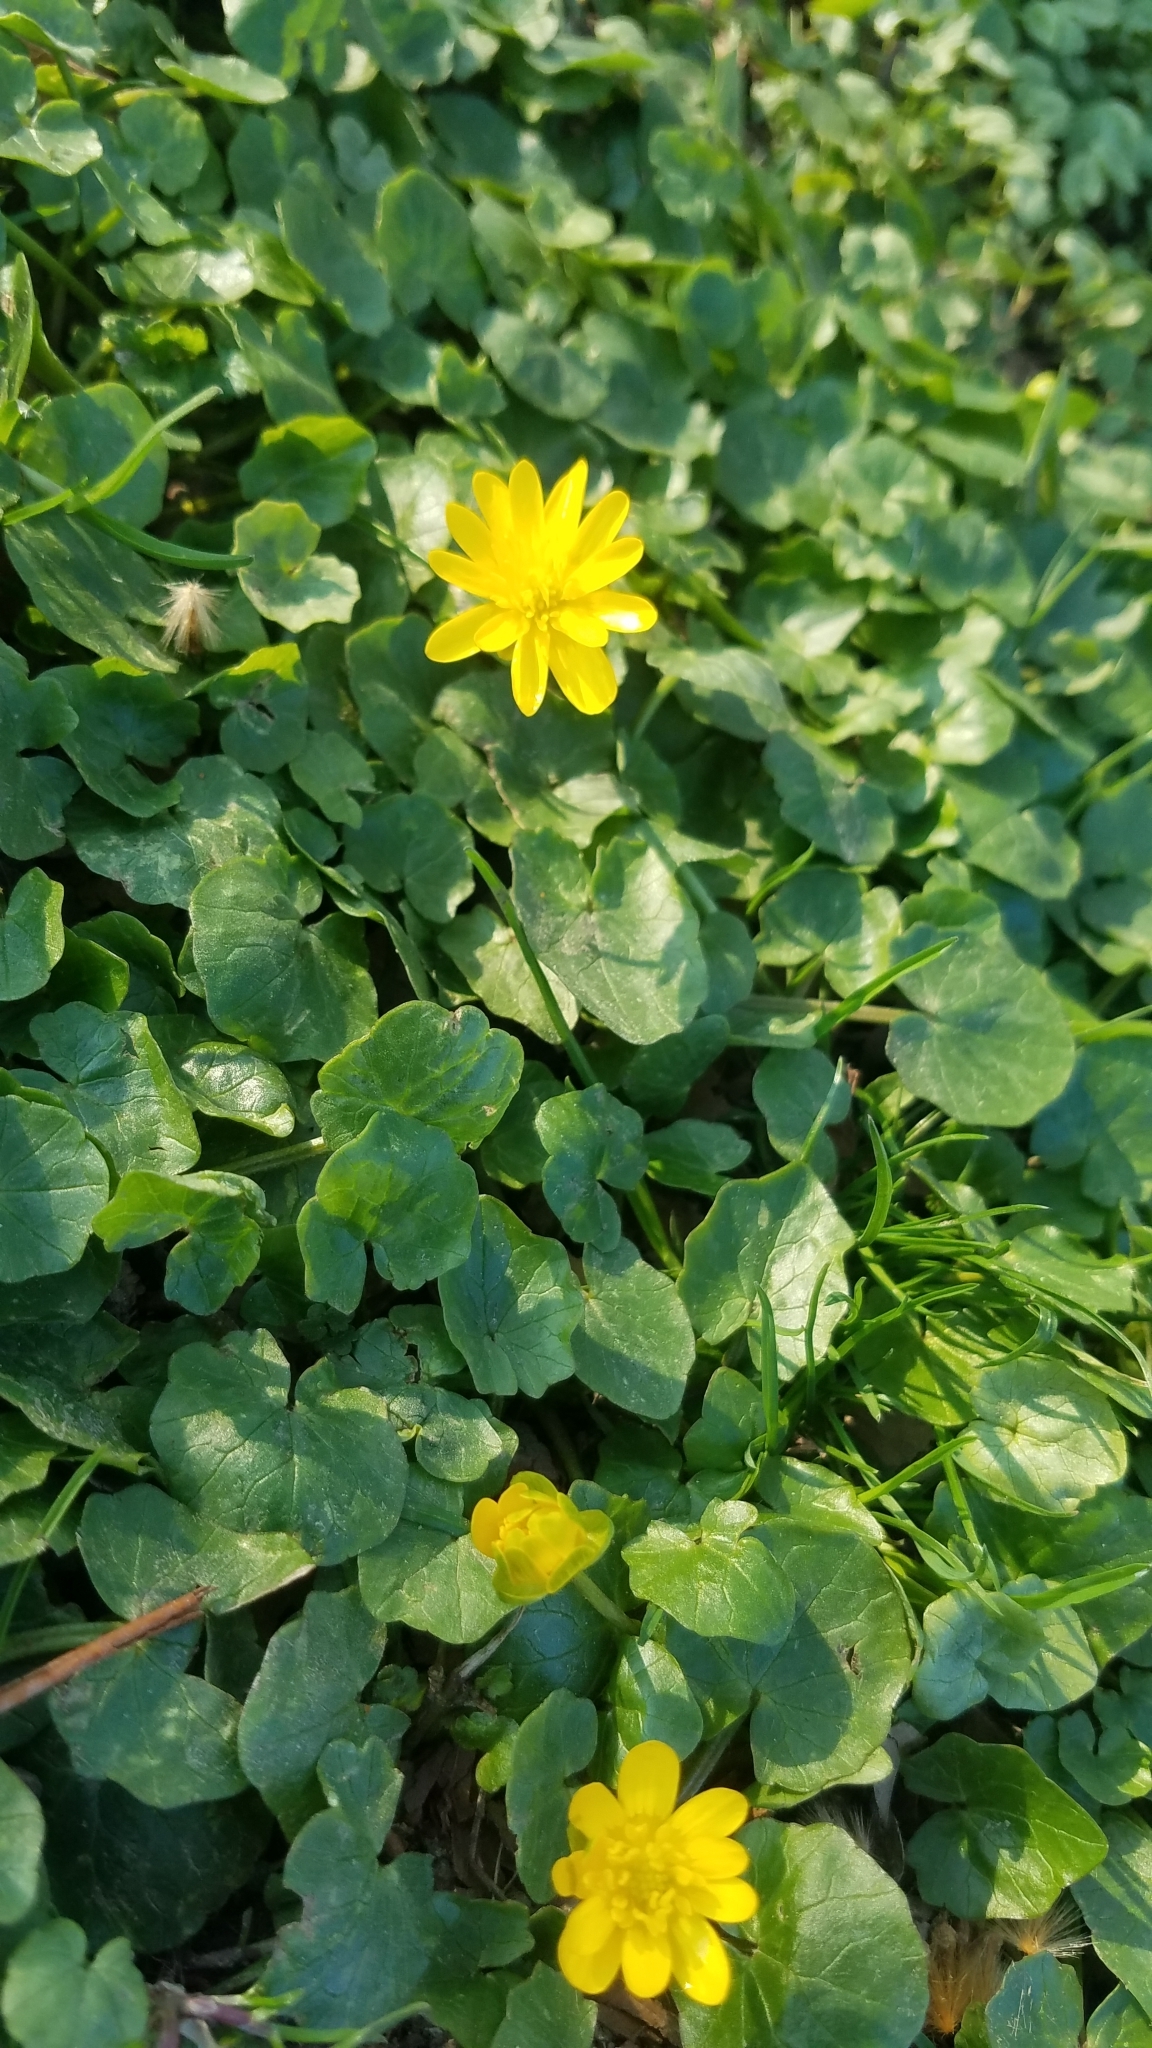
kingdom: Plantae
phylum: Tracheophyta
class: Magnoliopsida
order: Ranunculales
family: Ranunculaceae
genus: Ficaria
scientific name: Ficaria verna
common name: Lesser celandine
